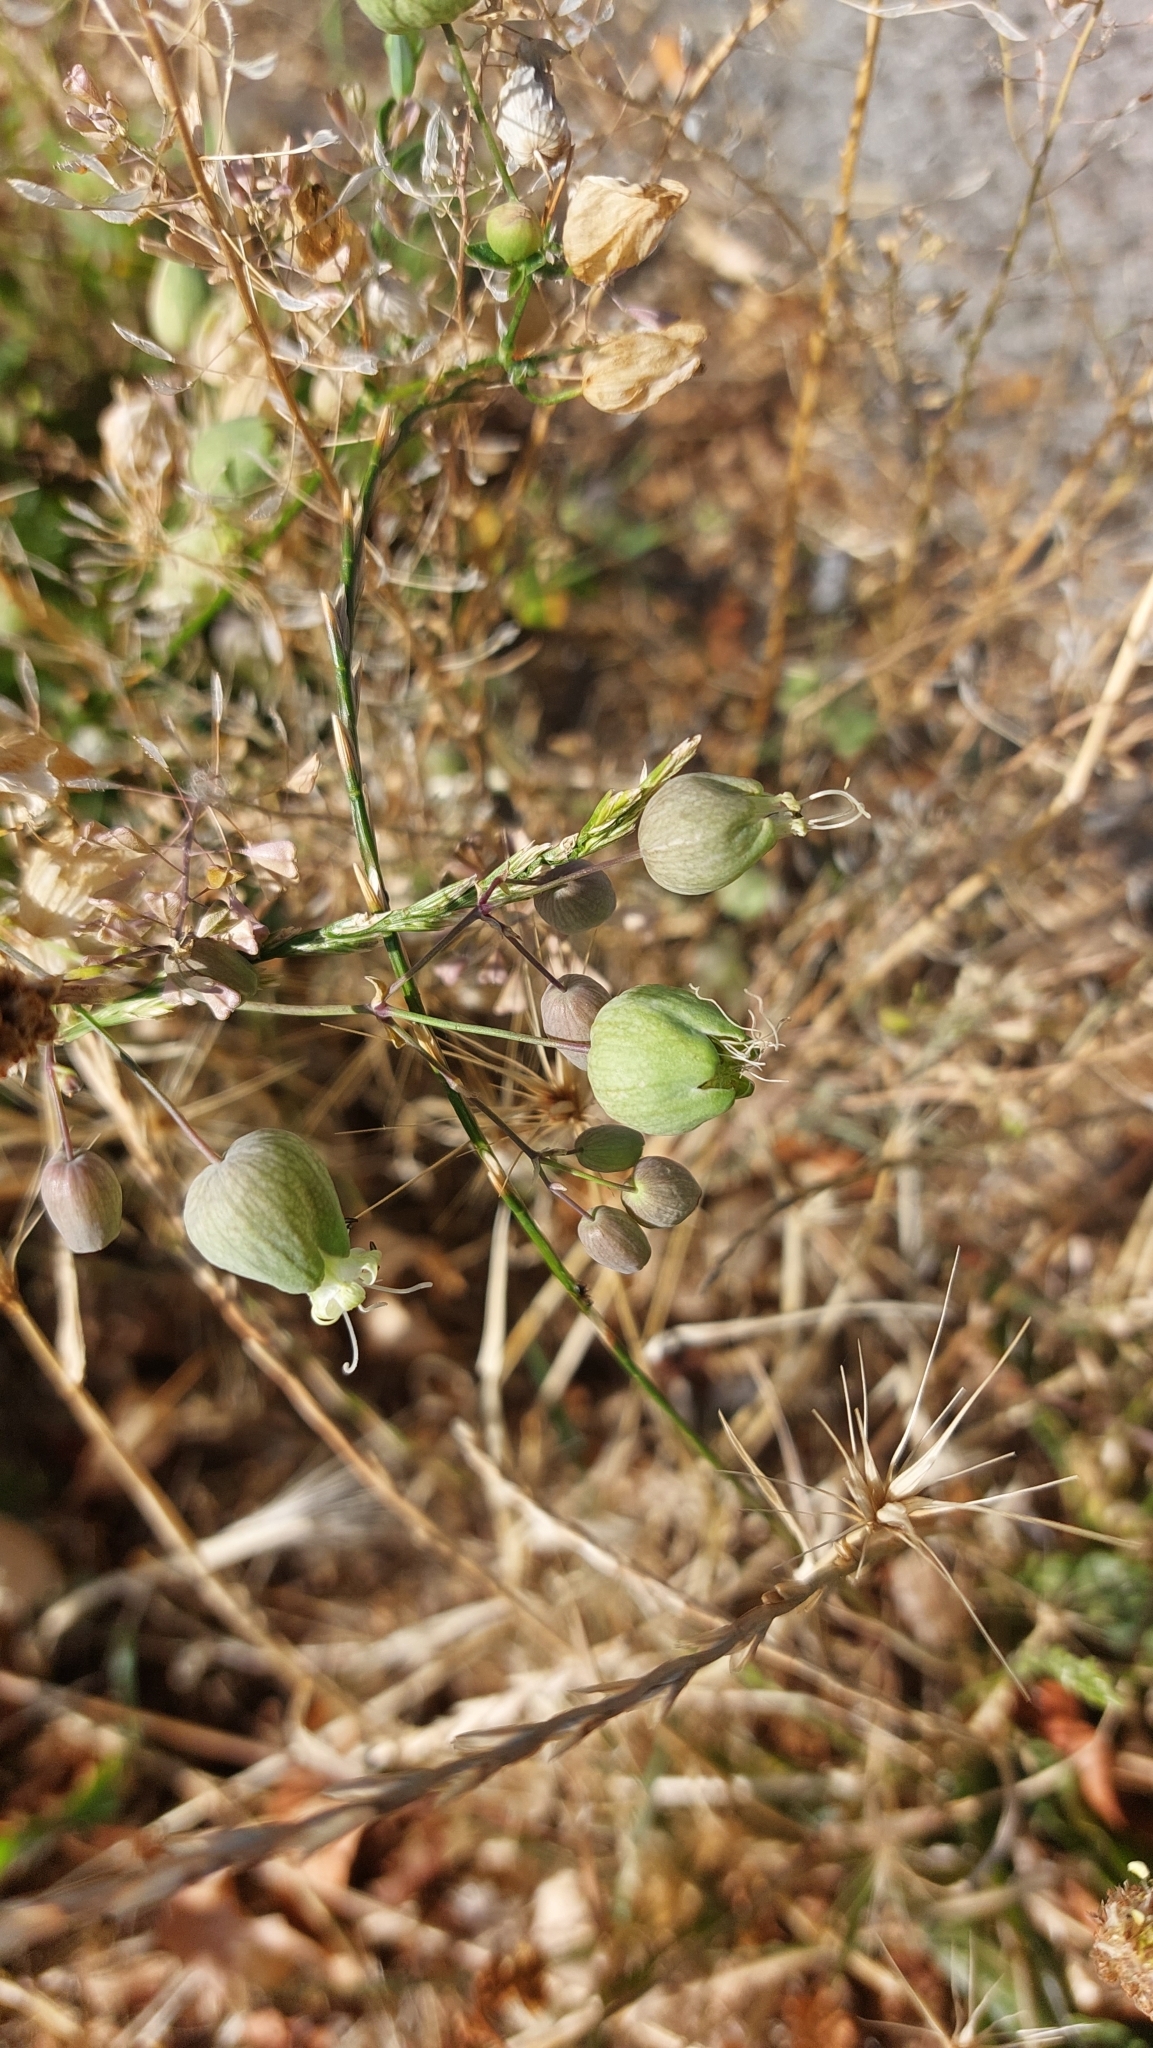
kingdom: Plantae
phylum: Tracheophyta
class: Magnoliopsida
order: Caryophyllales
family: Caryophyllaceae
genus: Silene
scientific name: Silene vulgaris
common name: Bladder campion
